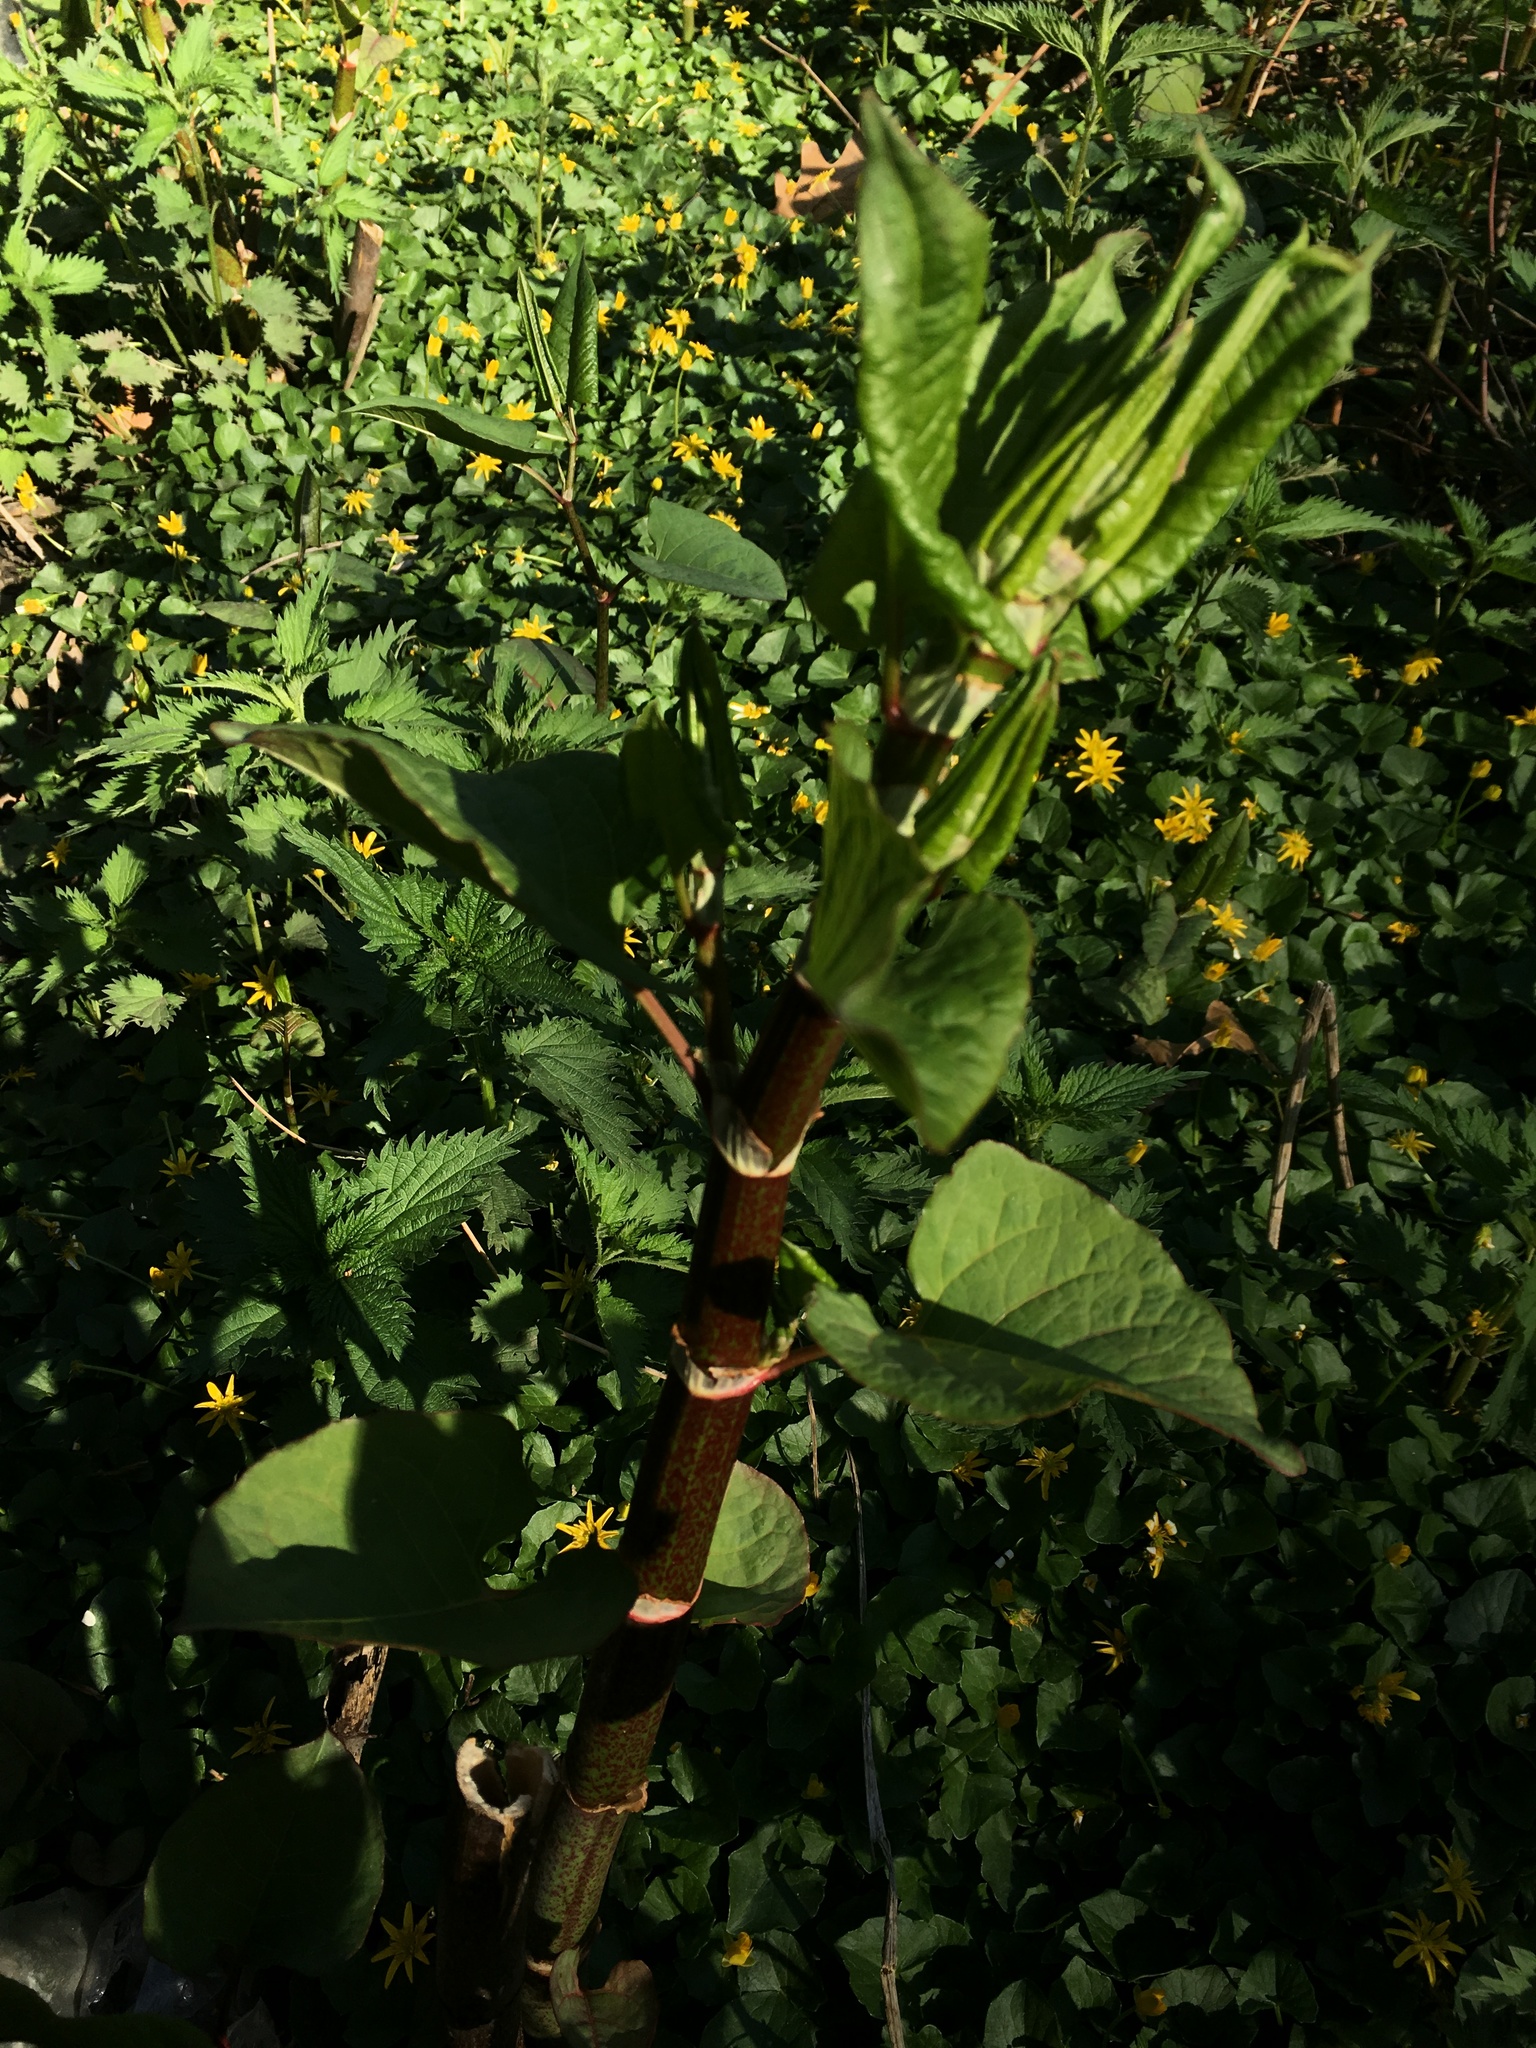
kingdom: Plantae
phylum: Tracheophyta
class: Magnoliopsida
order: Caryophyllales
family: Polygonaceae
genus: Reynoutria
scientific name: Reynoutria bohemica
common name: Bohemian knotweed
